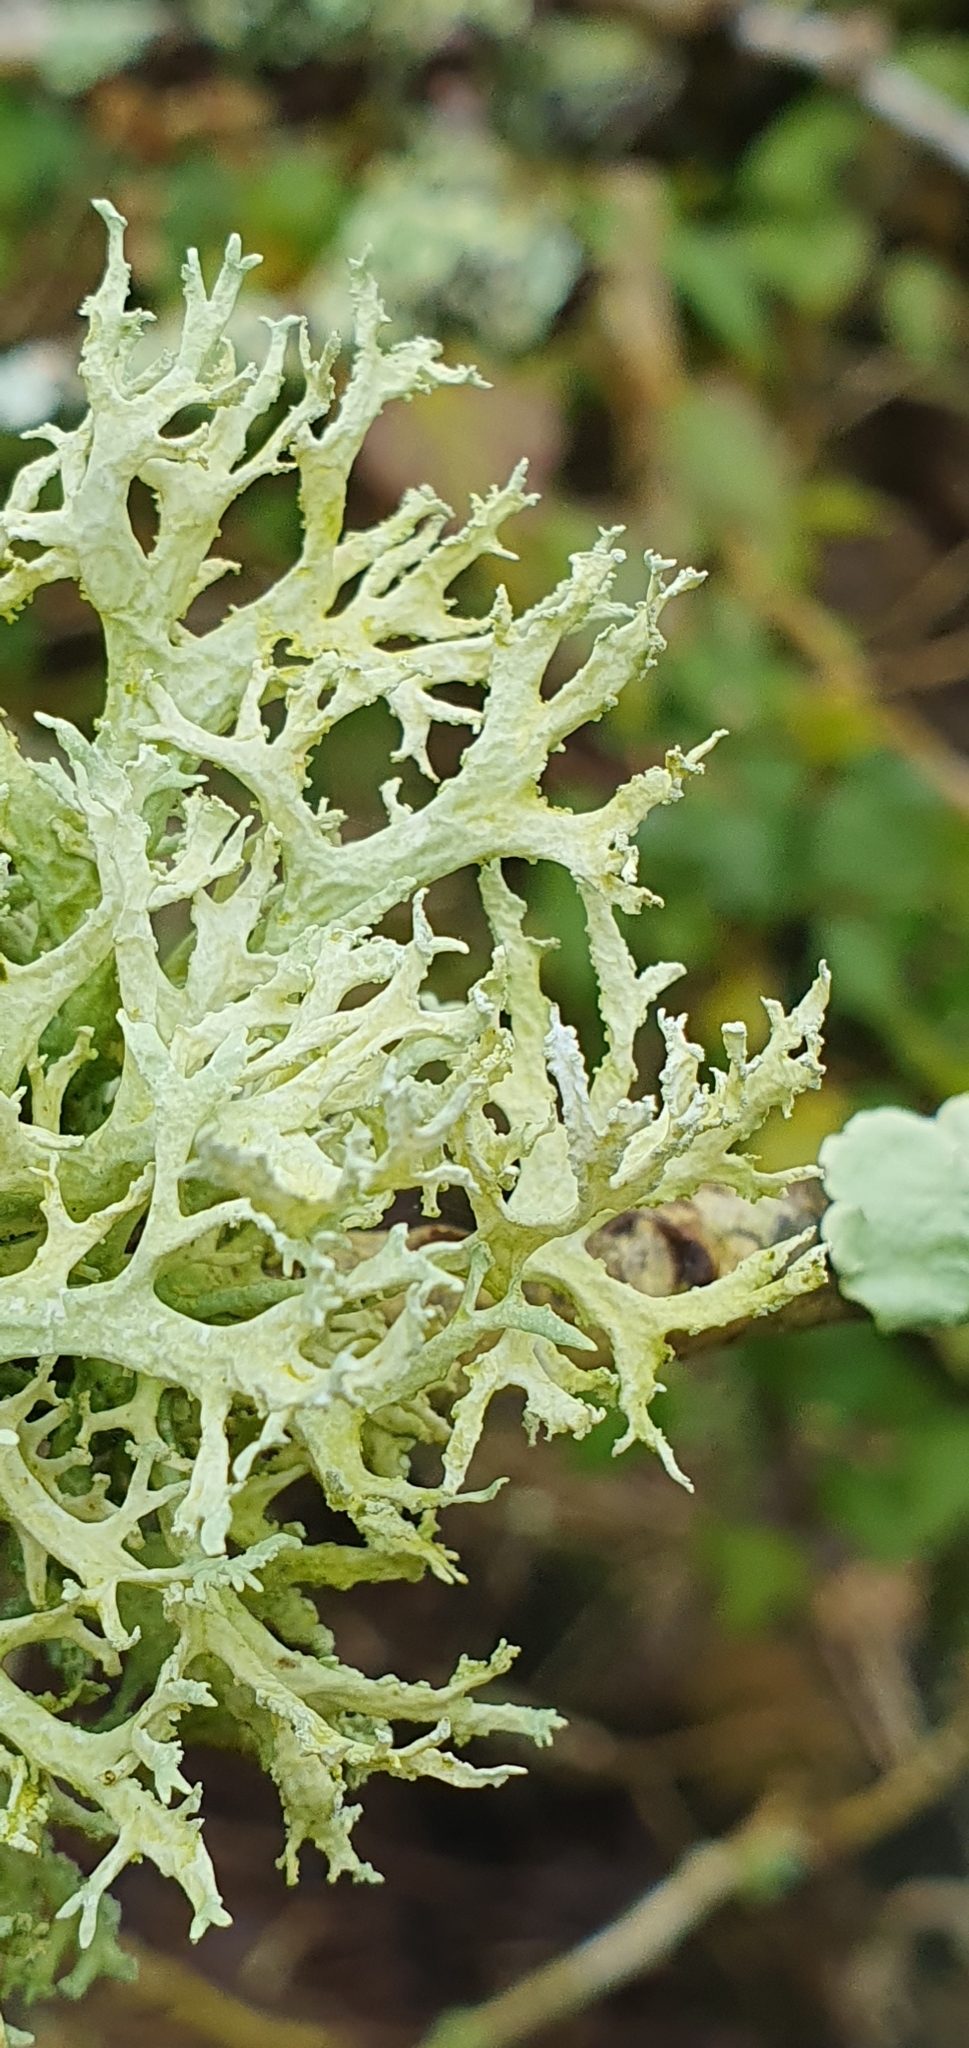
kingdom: Fungi
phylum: Ascomycota
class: Lecanoromycetes
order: Lecanorales
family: Parmeliaceae
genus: Evernia
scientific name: Evernia prunastri
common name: Oak moss
